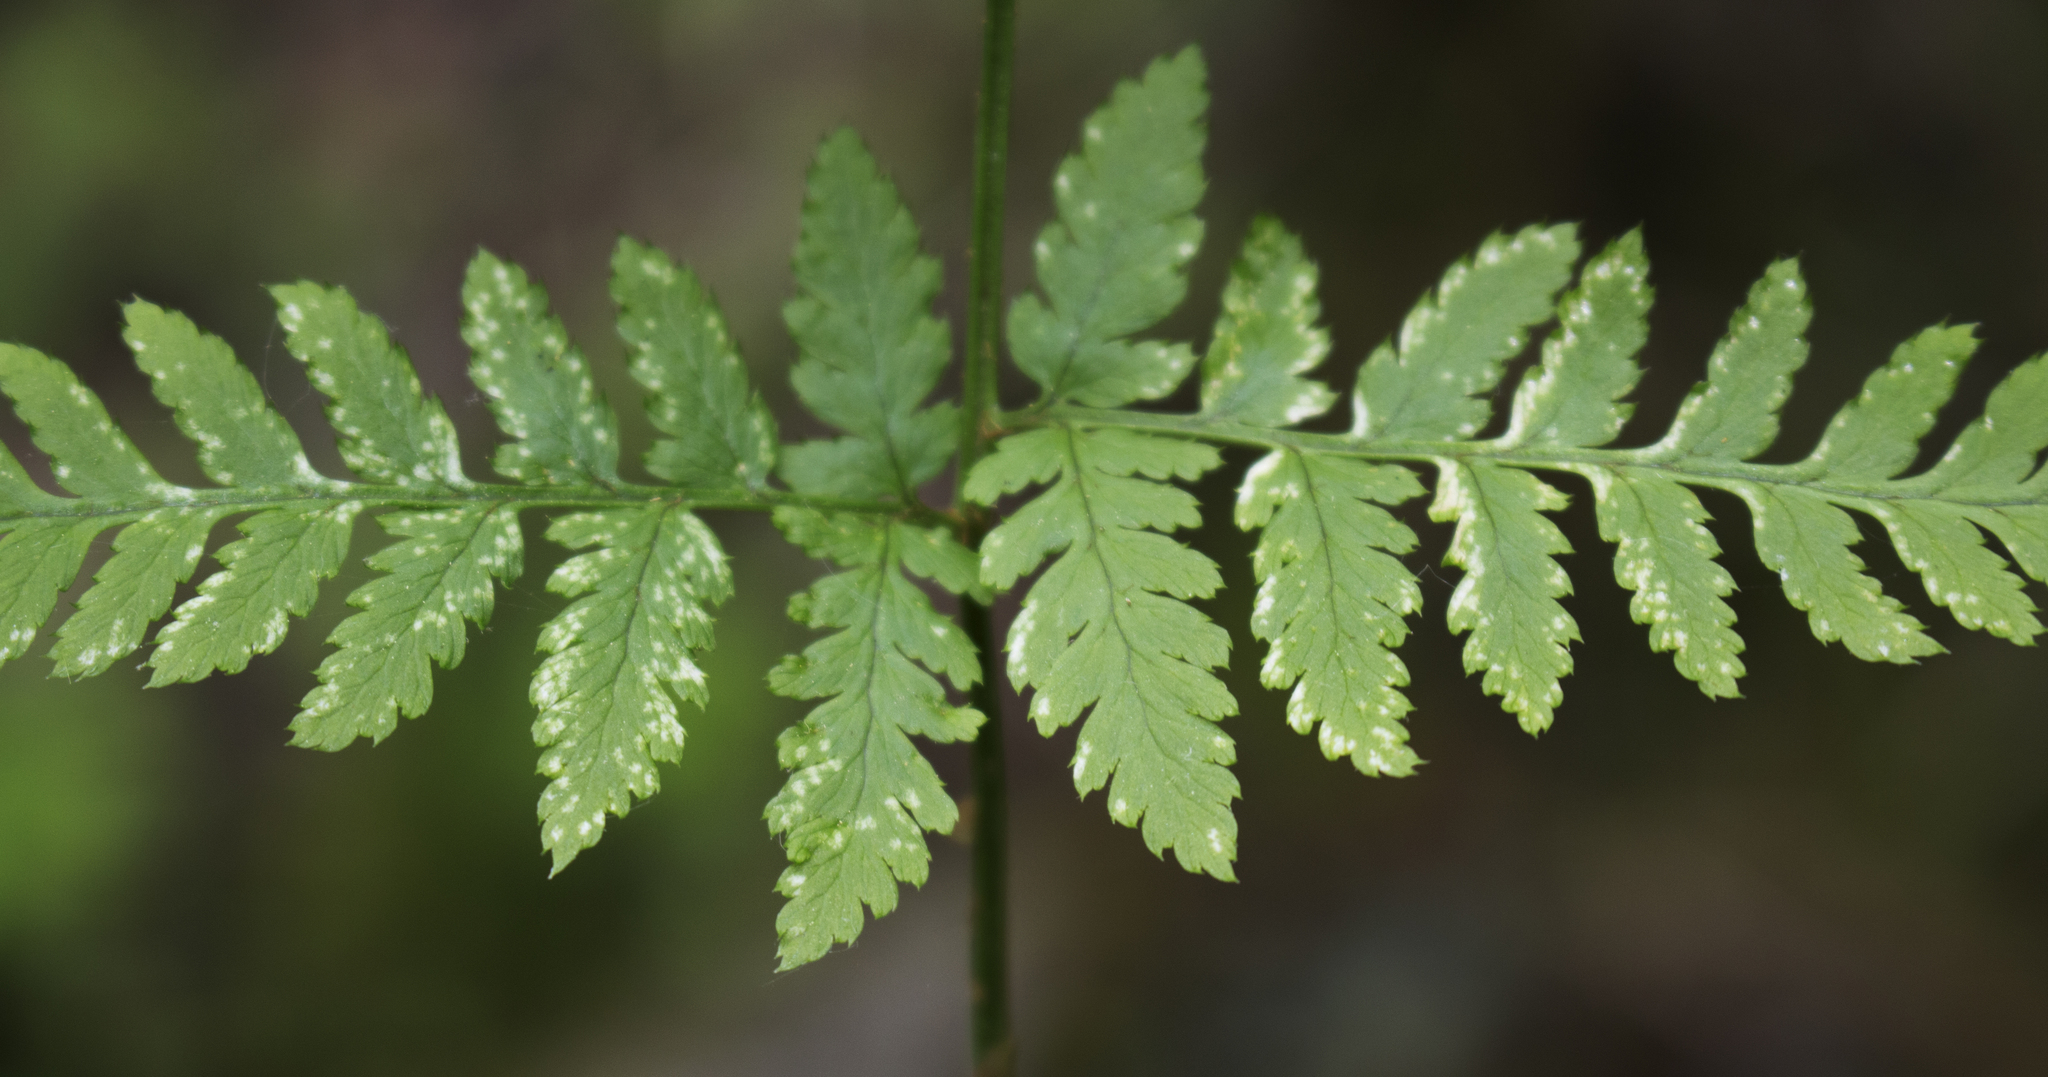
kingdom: Plantae
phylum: Tracheophyta
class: Polypodiopsida
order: Polypodiales
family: Dryopteridaceae
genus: Dryopteris
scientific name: Dryopteris carthusiana
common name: Narrow buckler-fern
